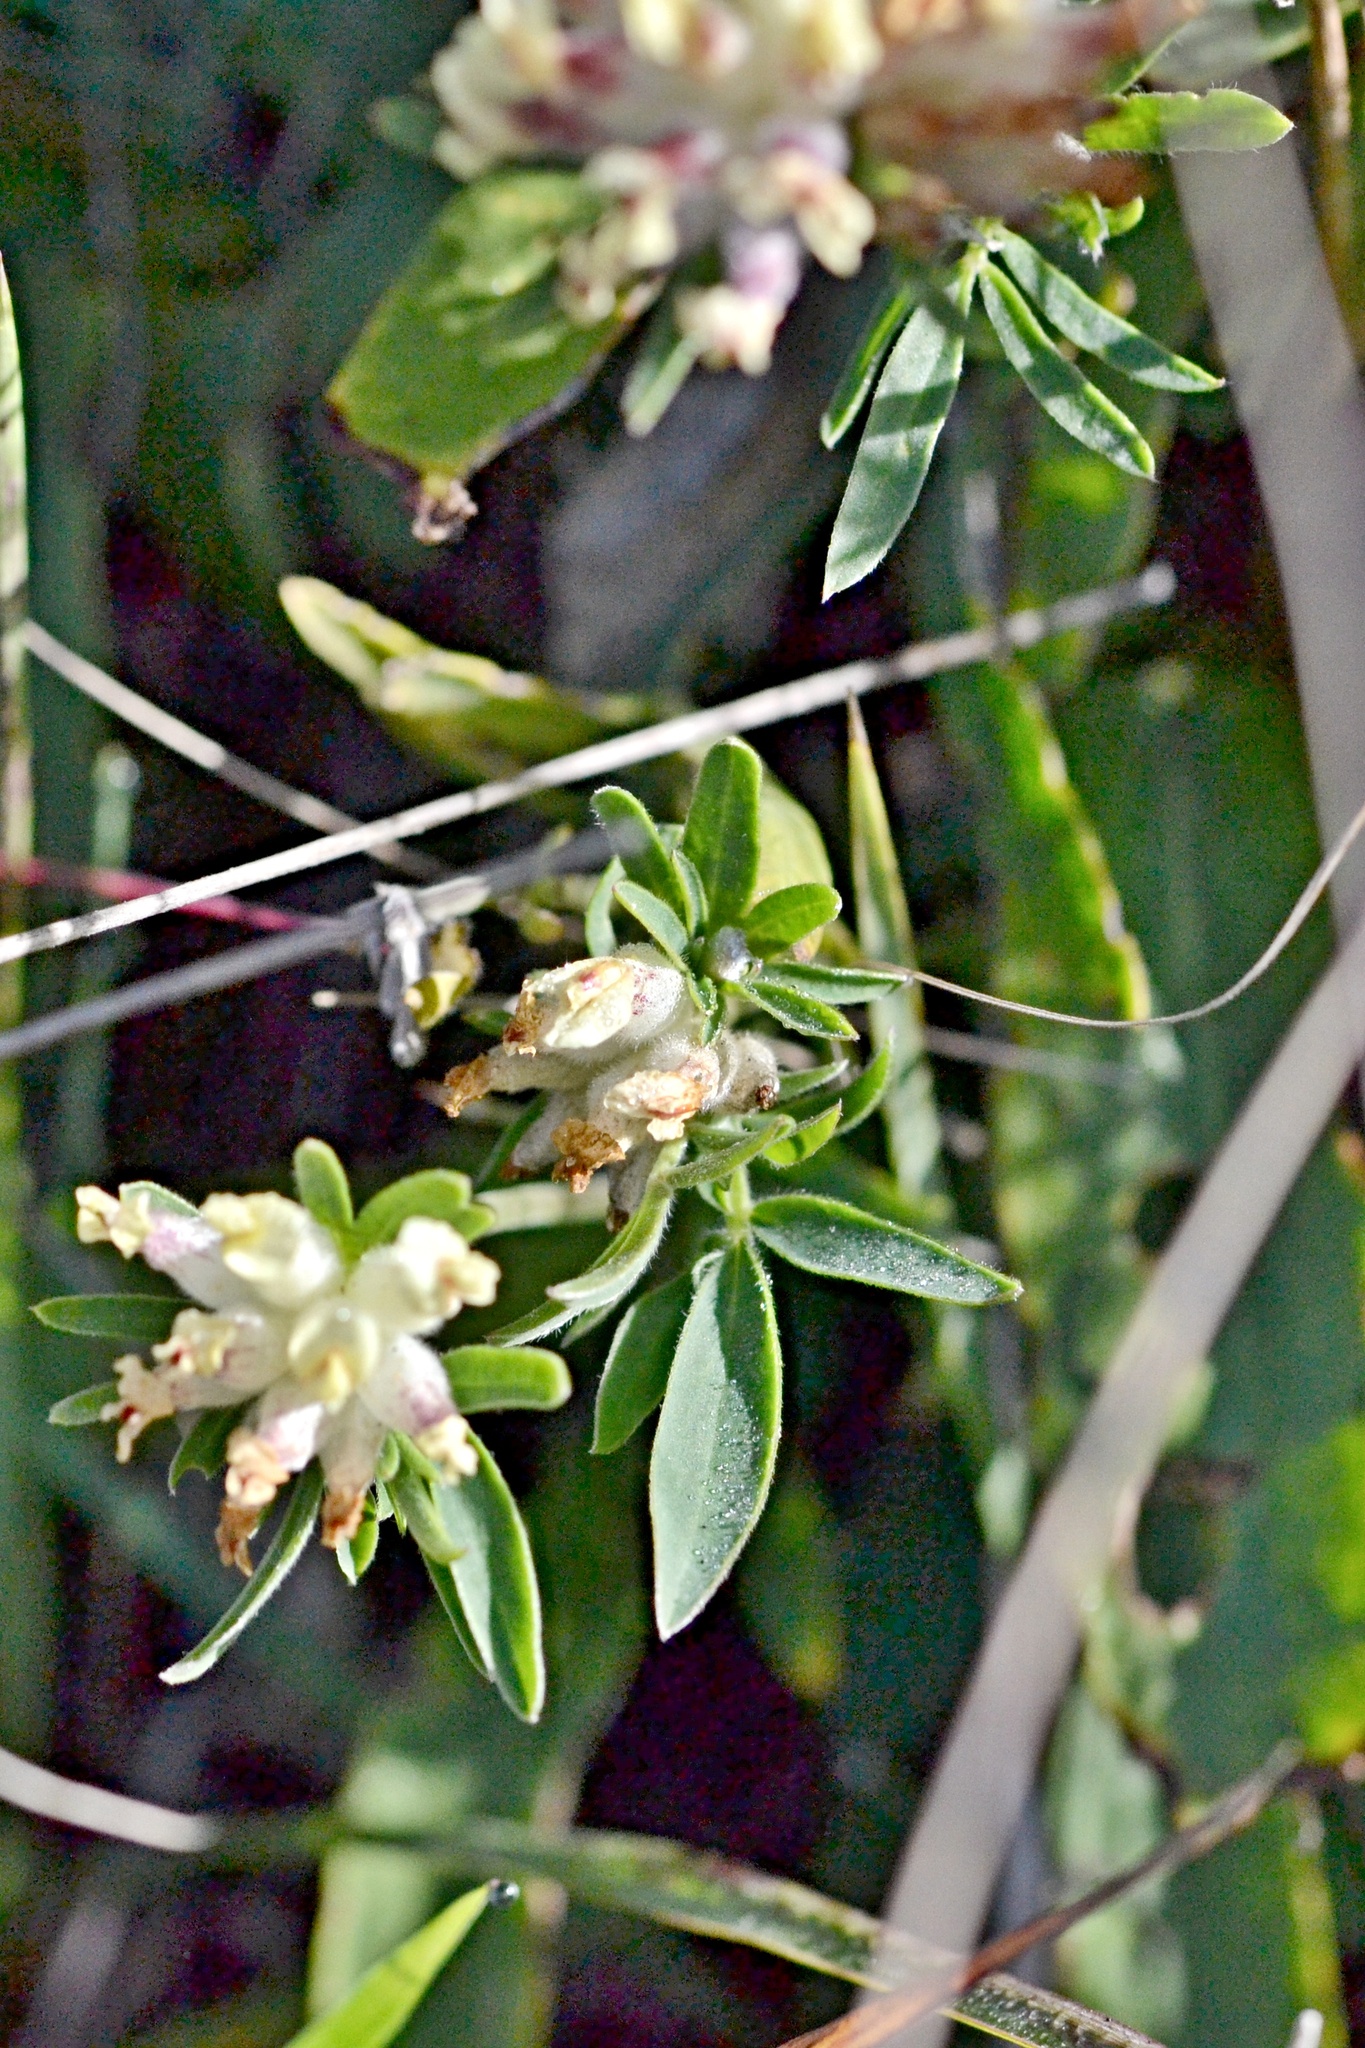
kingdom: Plantae
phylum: Tracheophyta
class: Magnoliopsida
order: Fabales
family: Fabaceae
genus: Anthyllis
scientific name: Anthyllis vulneraria
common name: Kidney vetch
